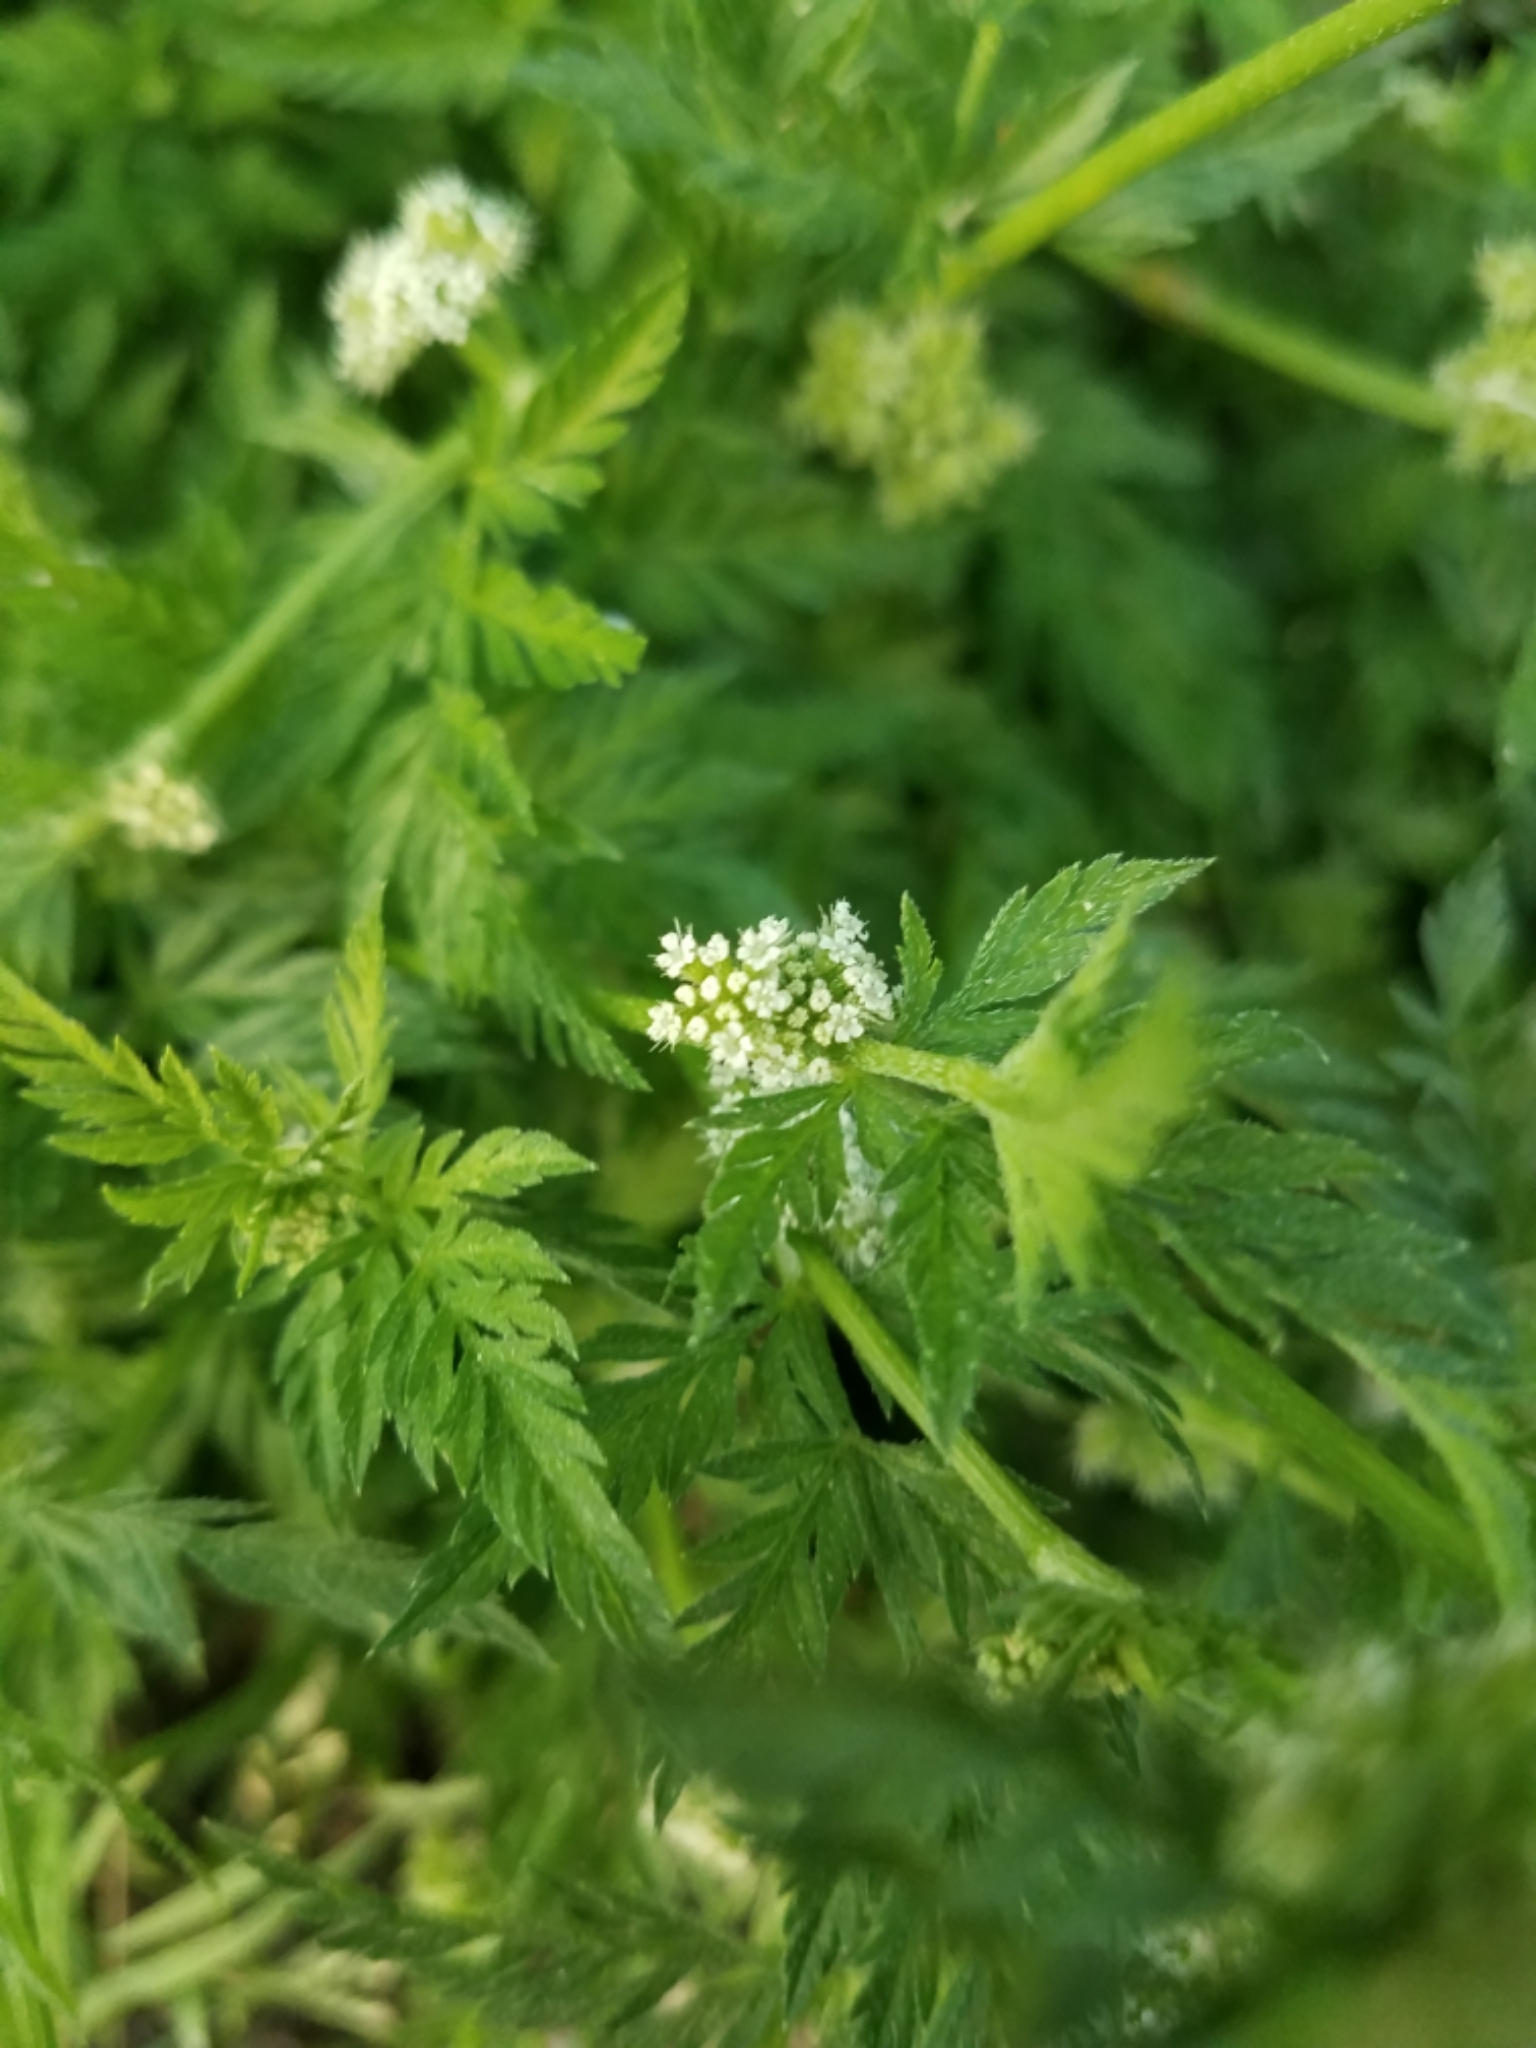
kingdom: Plantae
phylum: Tracheophyta
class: Magnoliopsida
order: Apiales
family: Apiaceae
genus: Torilis
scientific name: Torilis nodosa
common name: Knotted hedge-parsley
